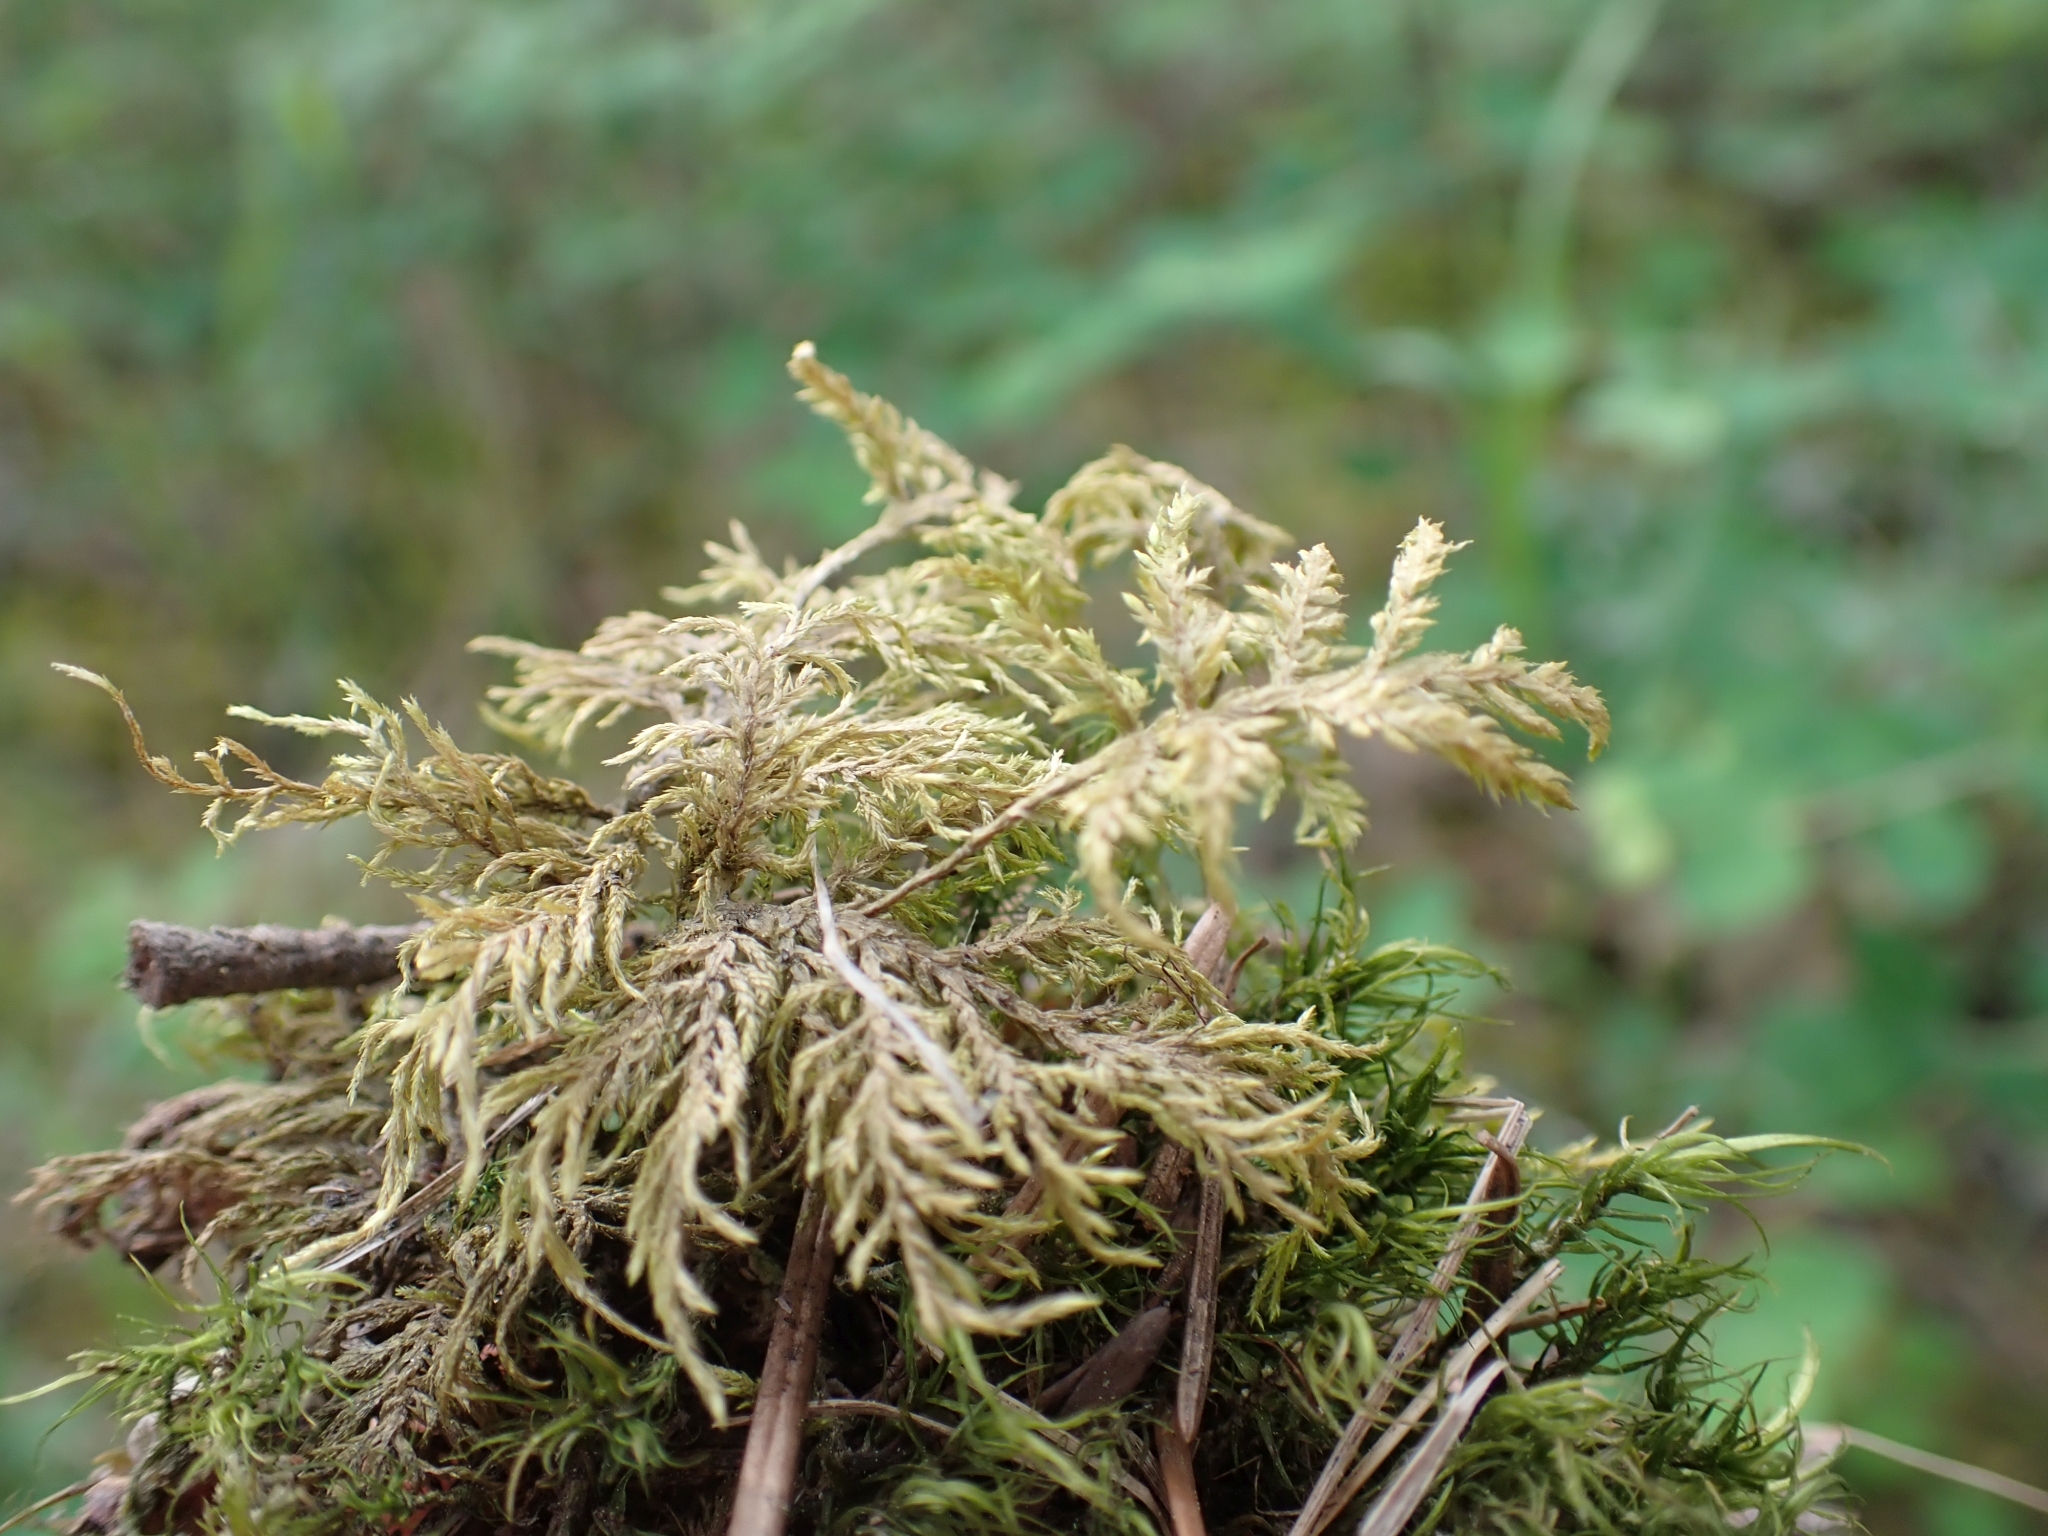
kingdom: Plantae
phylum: Bryophyta
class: Bryopsida
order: Hypnales
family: Hylocomiaceae
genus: Hylocomium
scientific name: Hylocomium splendens
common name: Stairstep moss
